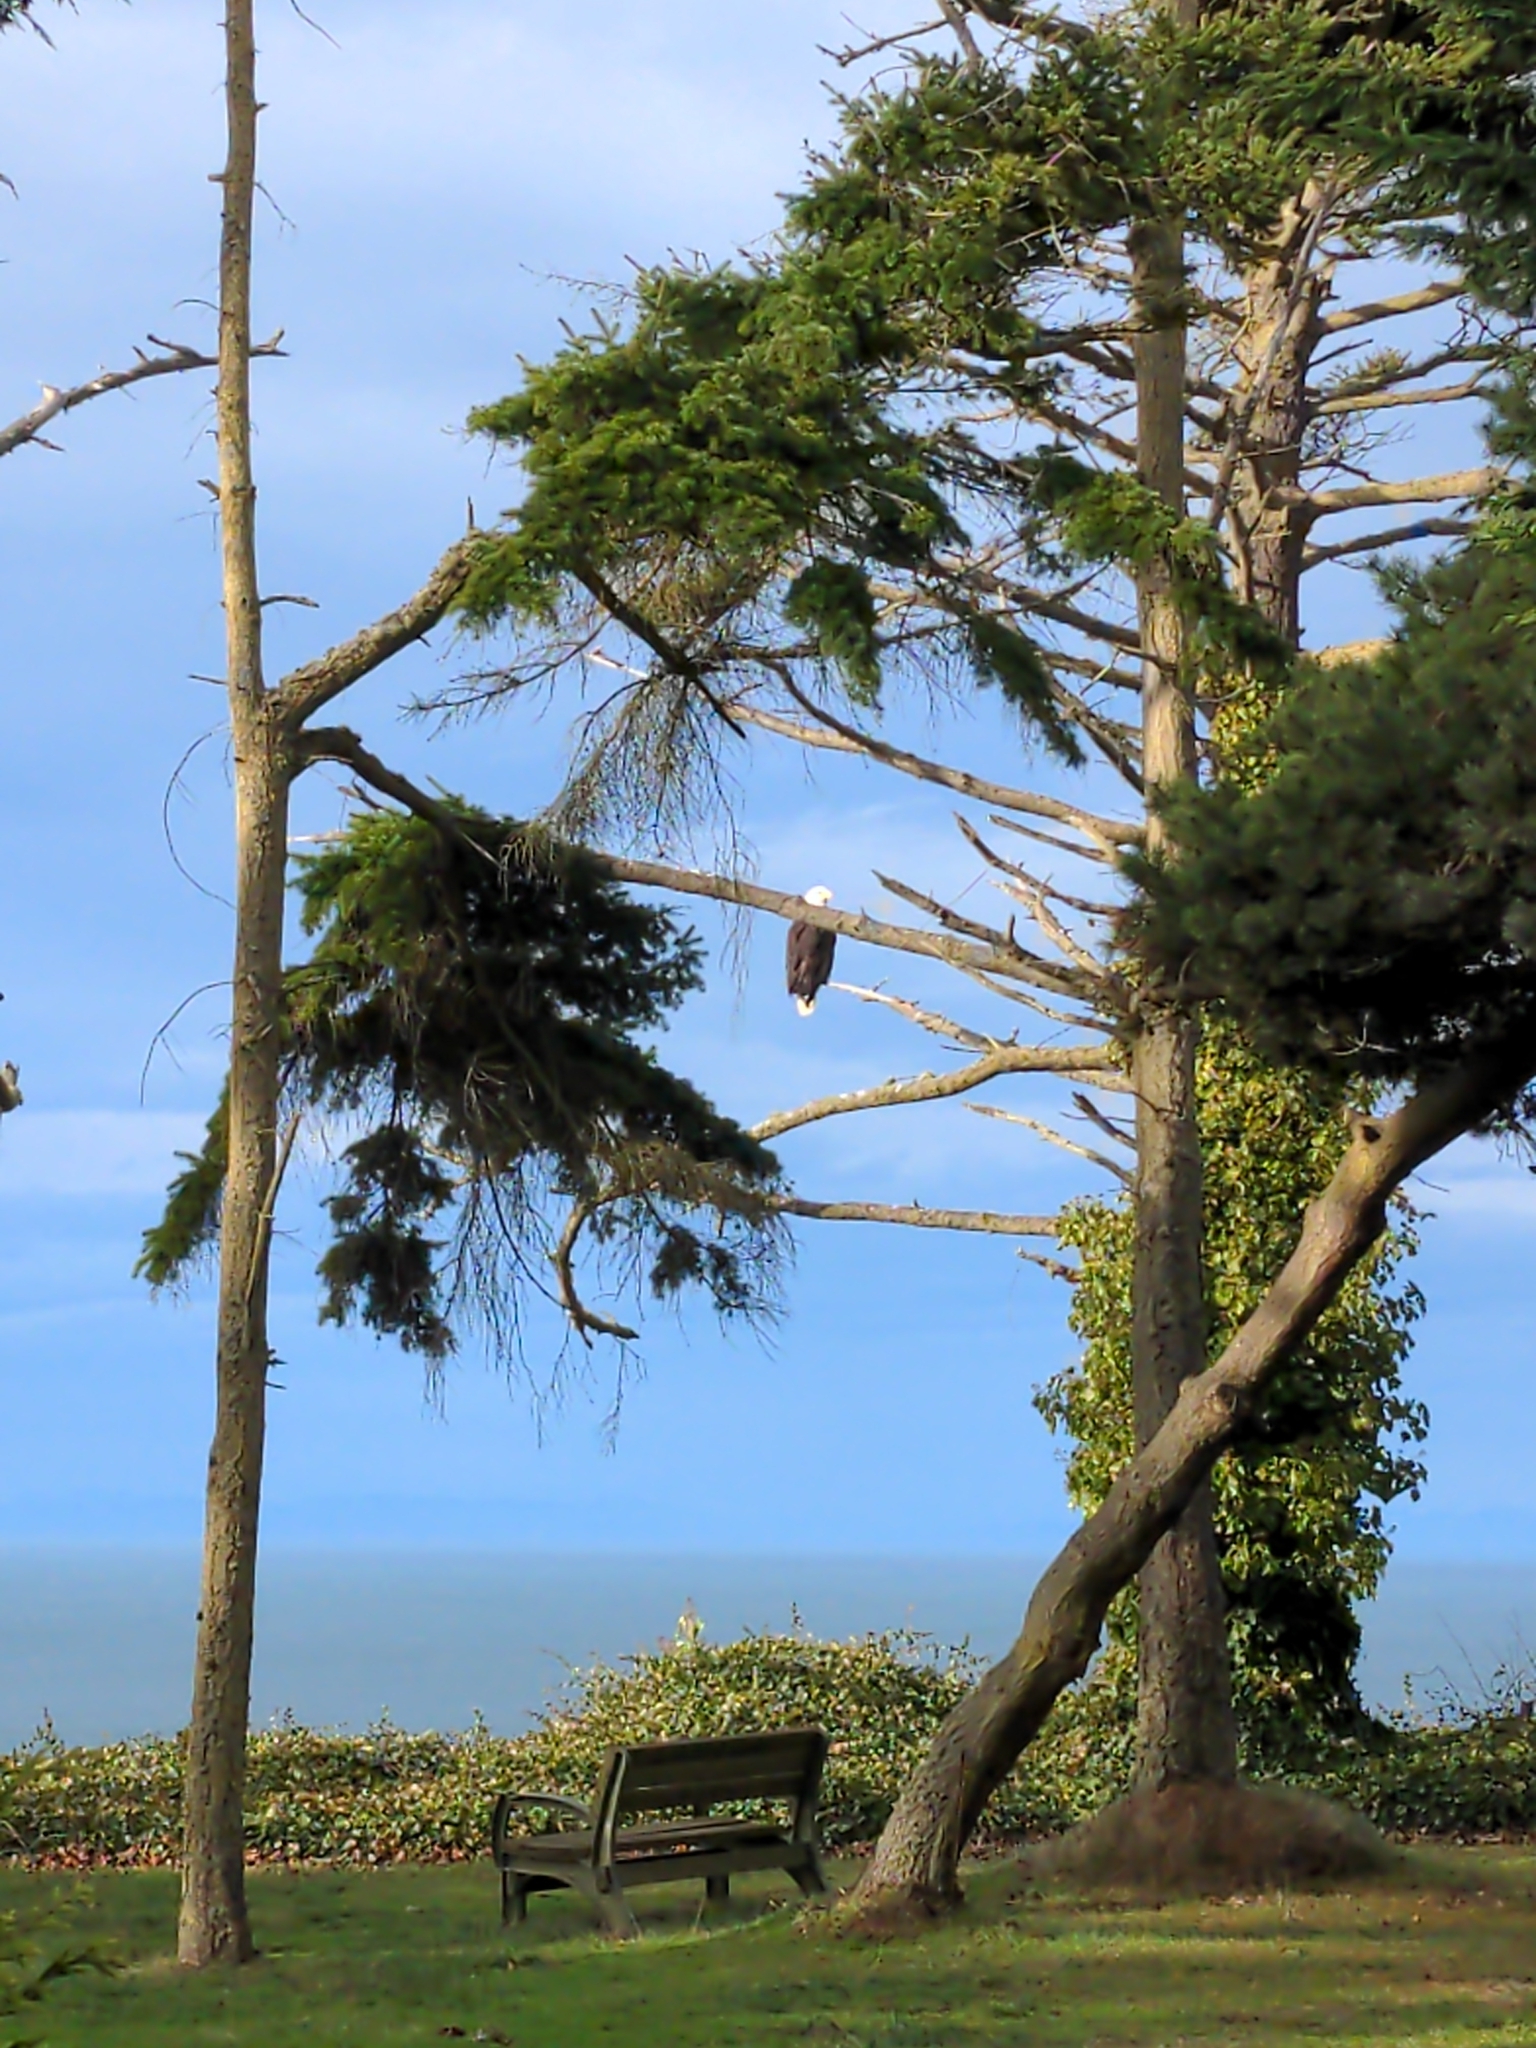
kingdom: Animalia
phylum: Chordata
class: Aves
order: Accipitriformes
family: Accipitridae
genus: Haliaeetus
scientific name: Haliaeetus leucocephalus
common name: Bald eagle
